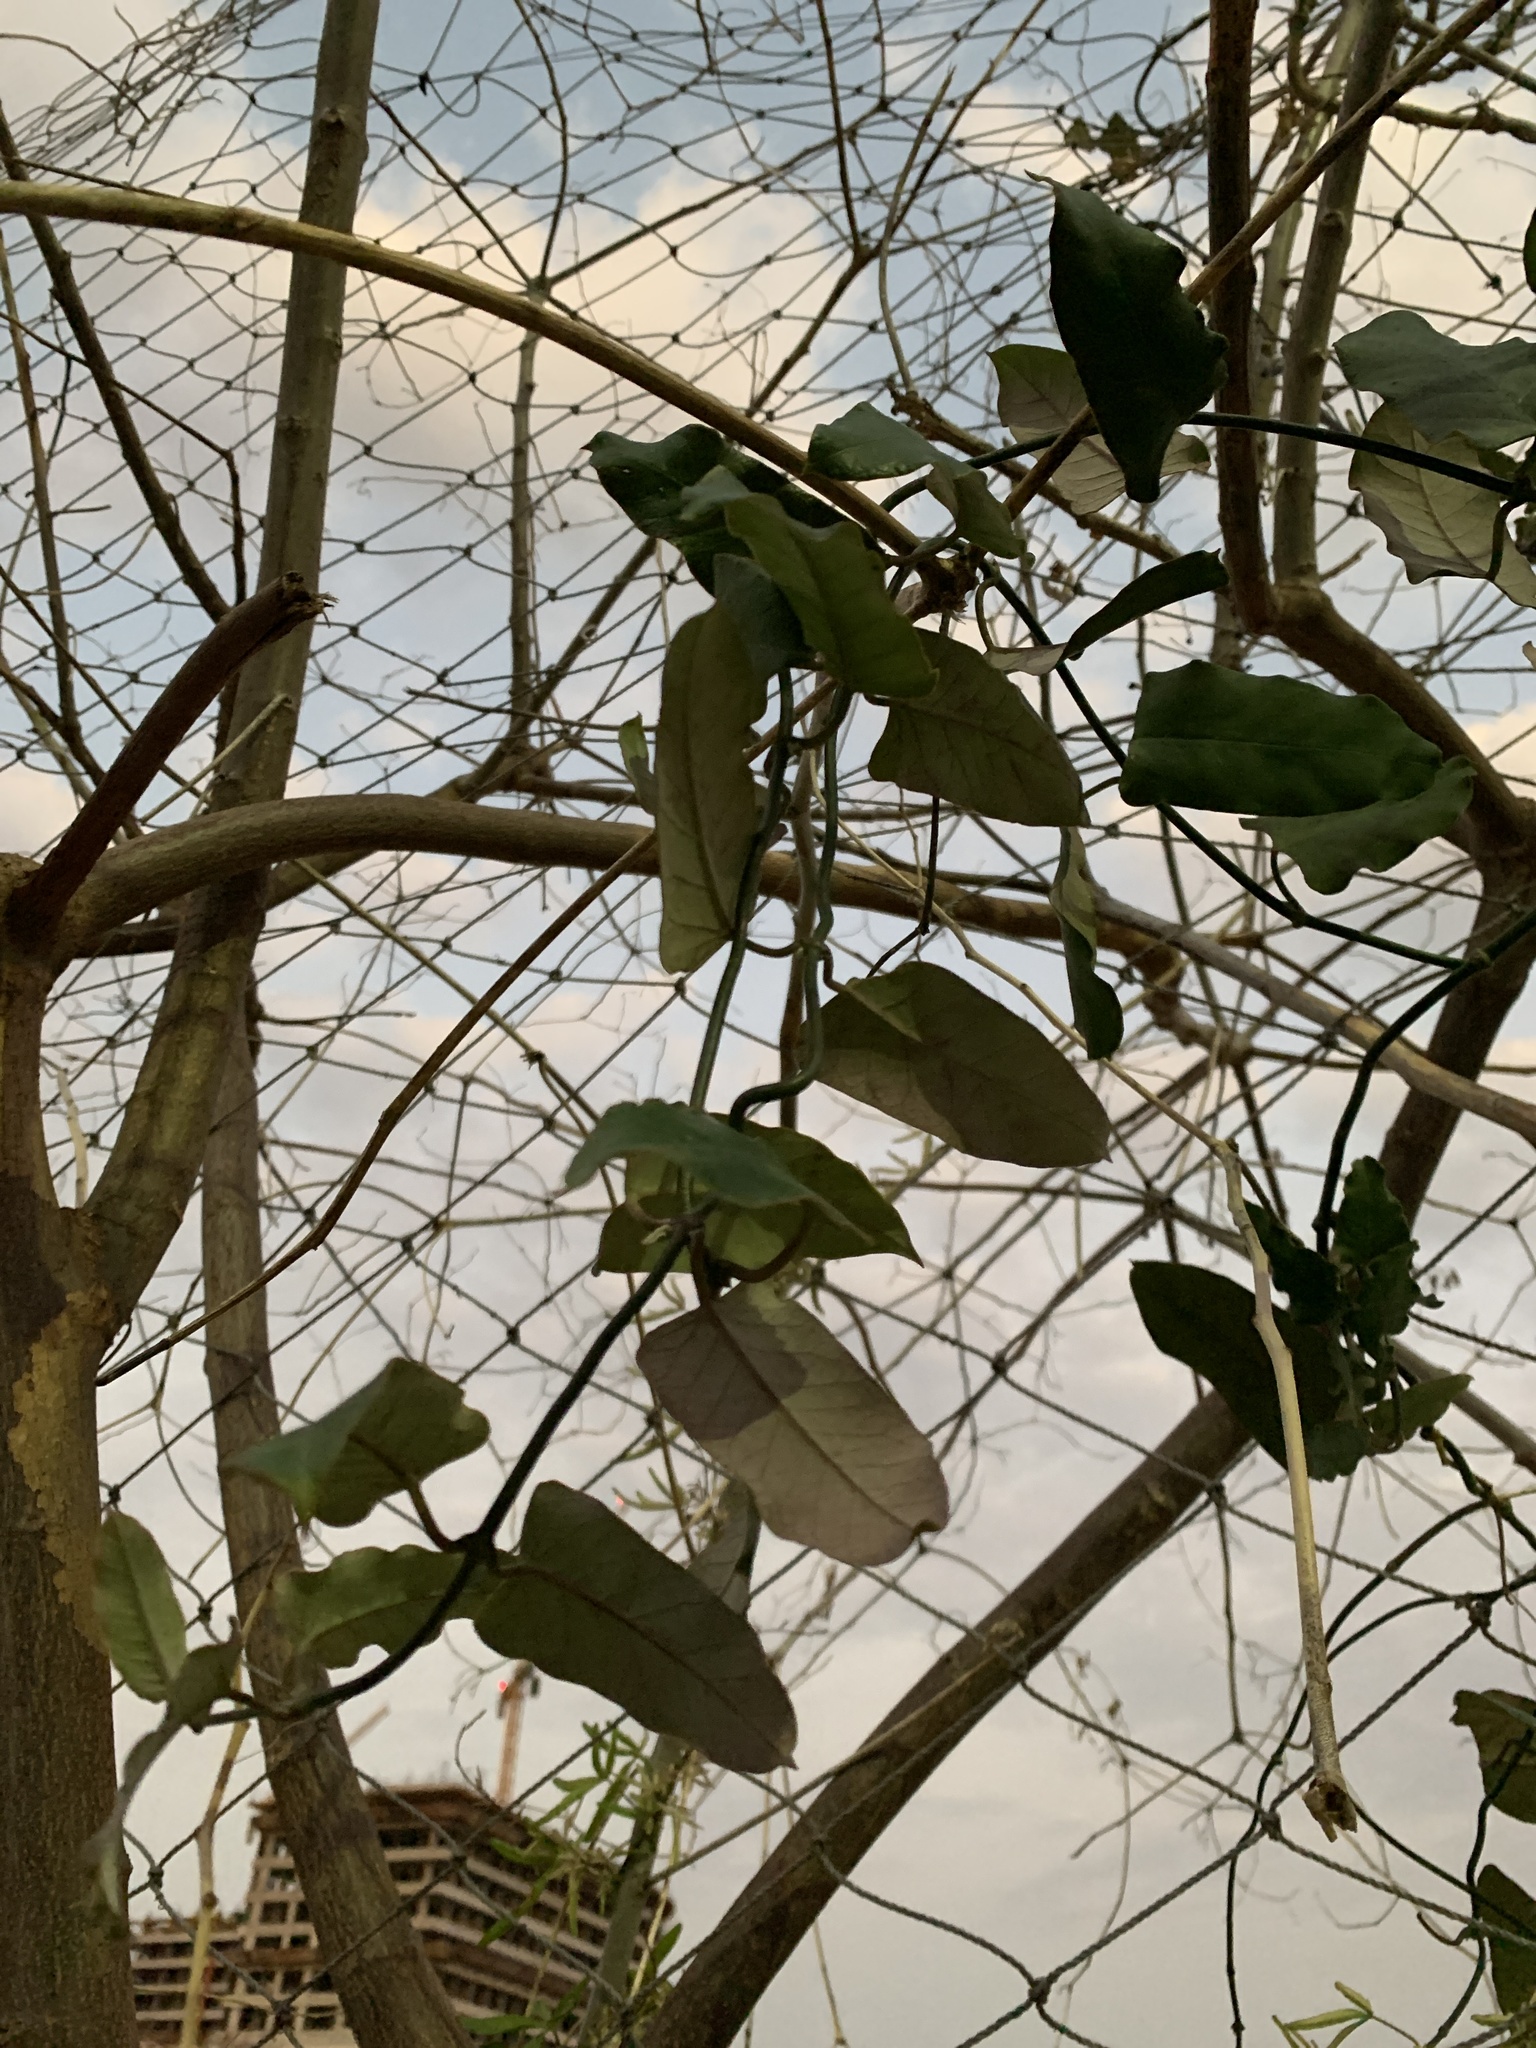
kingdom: Plantae
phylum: Tracheophyta
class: Magnoliopsida
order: Gentianales
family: Apocynaceae
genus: Araujia
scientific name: Araujia sericifera
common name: White bladderflower
